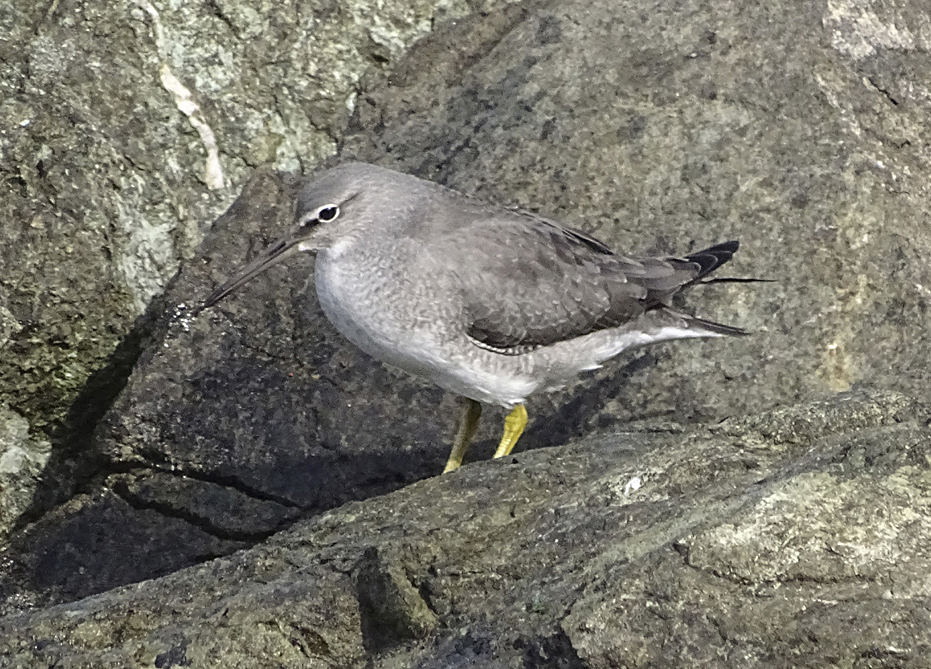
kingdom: Animalia
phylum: Chordata
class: Aves
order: Charadriiformes
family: Scolopacidae
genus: Tringa
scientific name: Tringa incana
